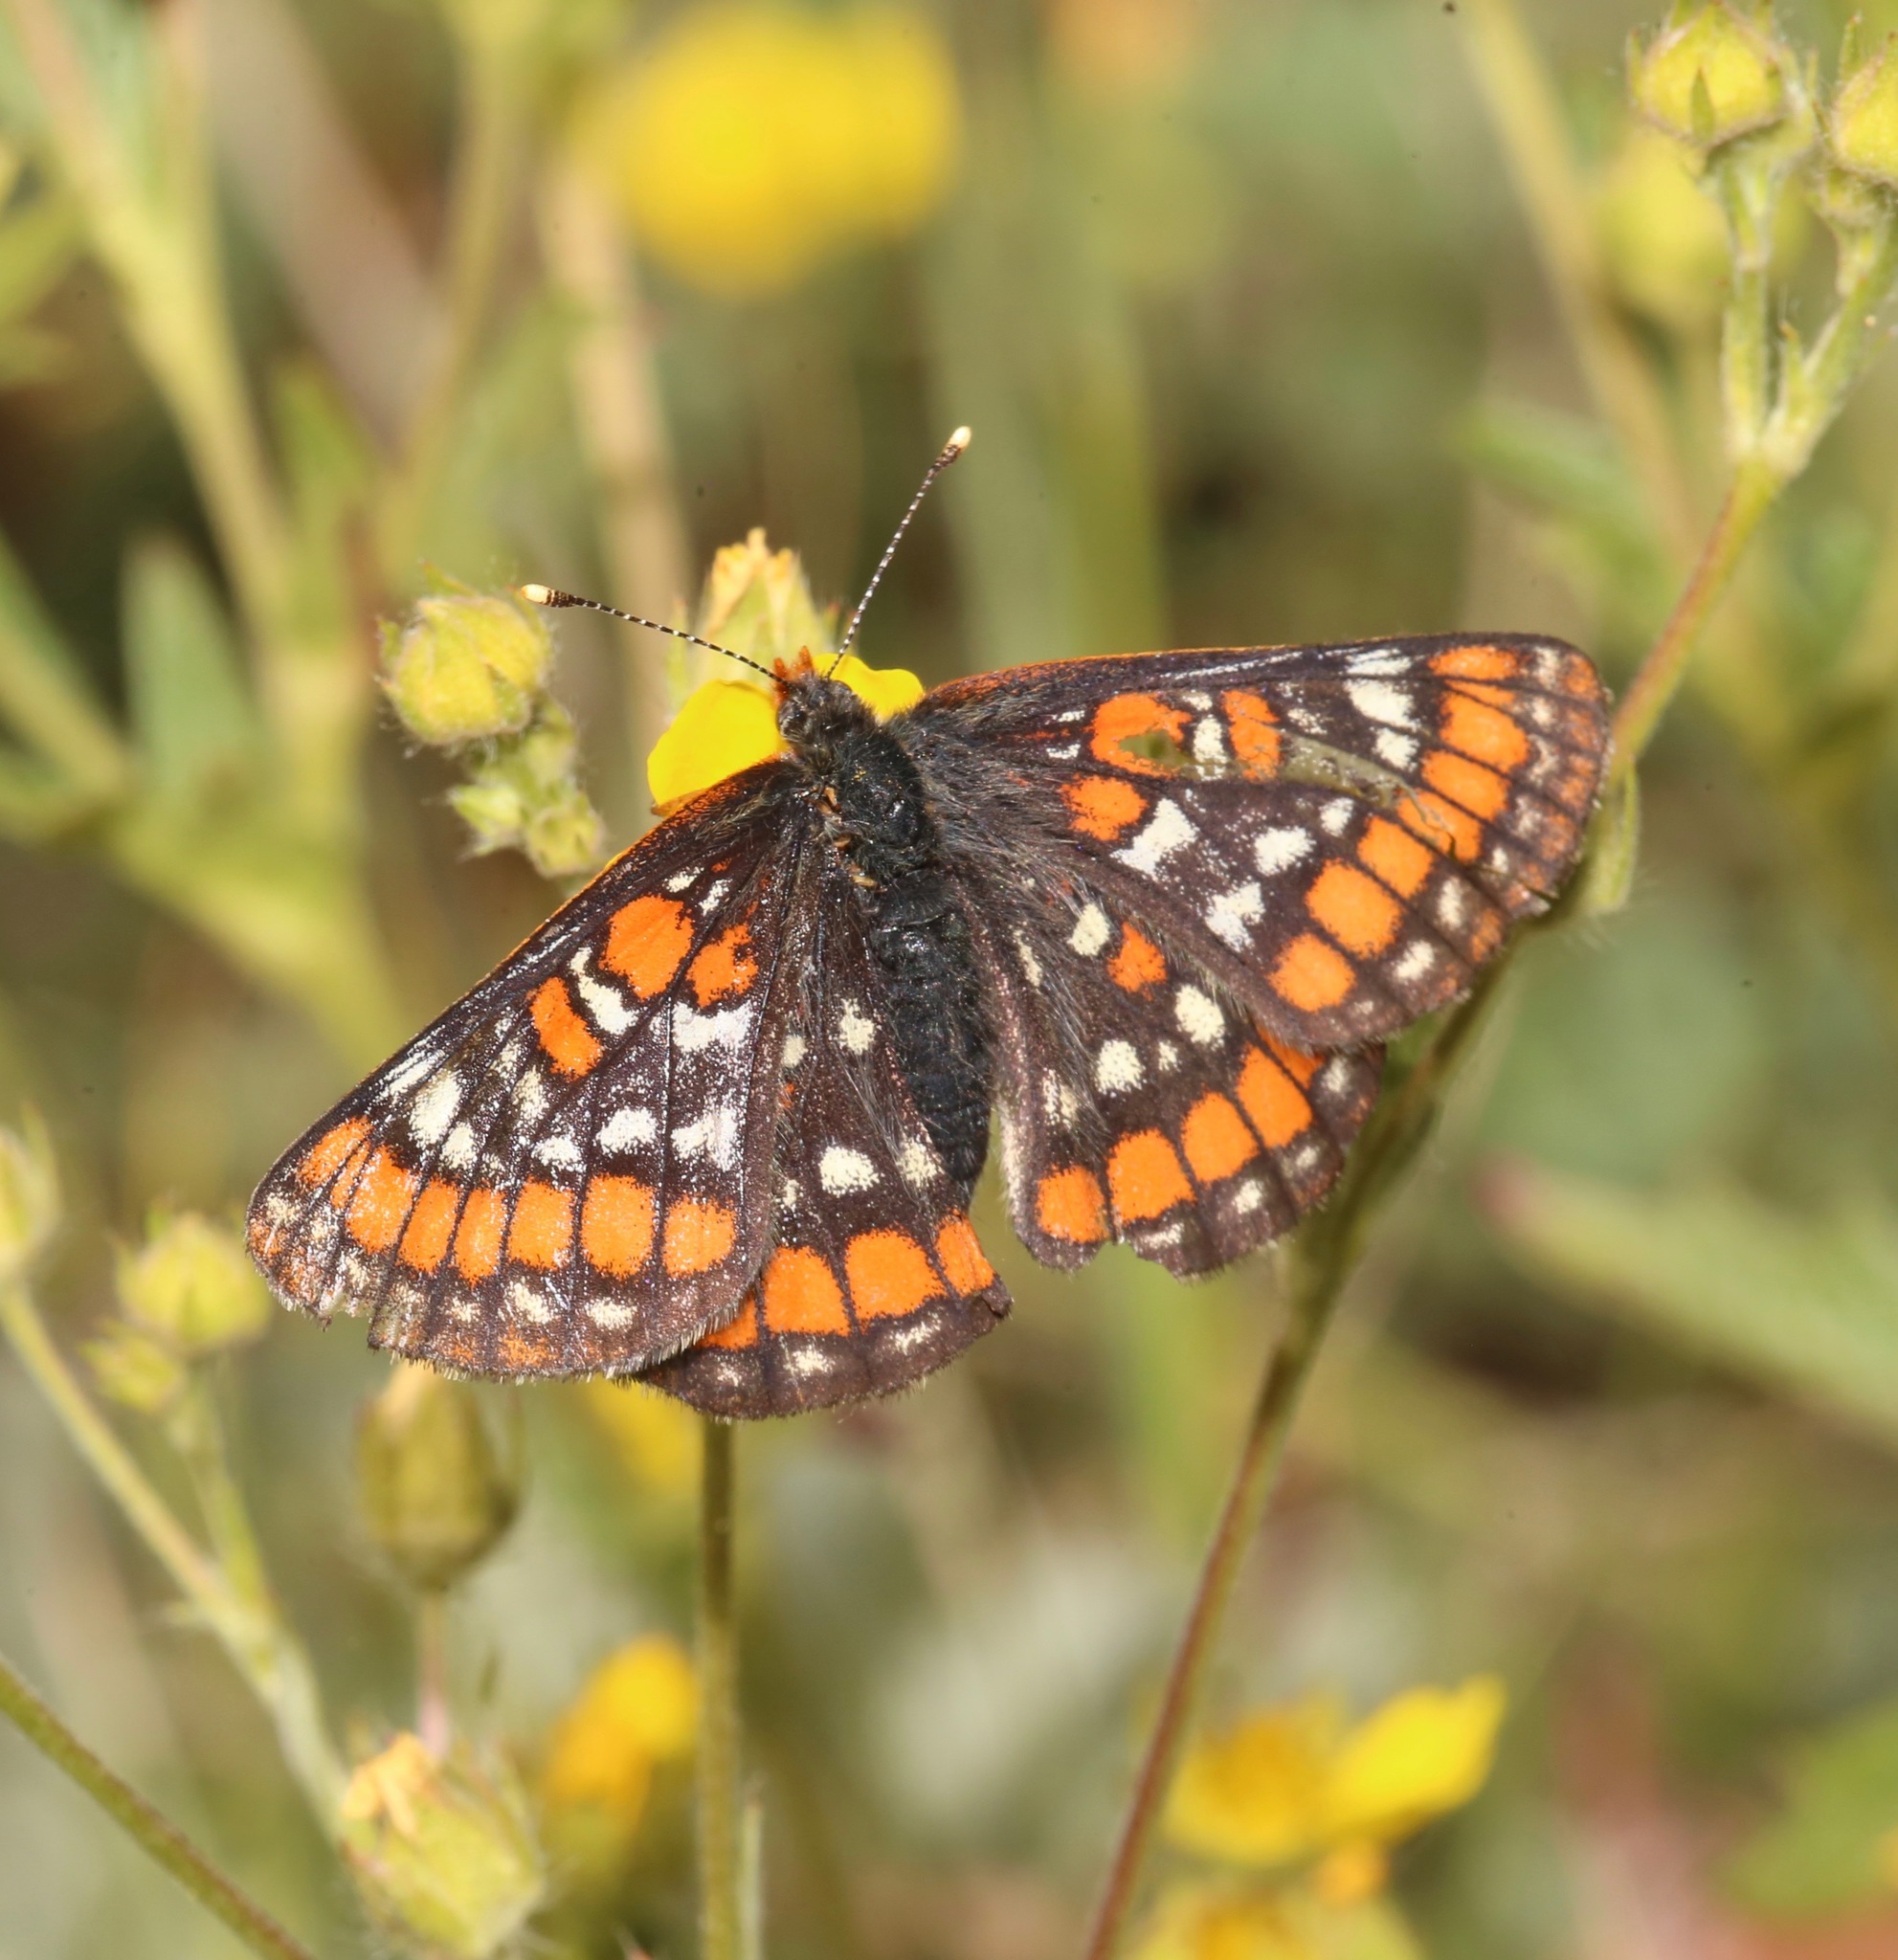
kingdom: Animalia
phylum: Arthropoda
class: Insecta
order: Lepidoptera
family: Nymphalidae
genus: Hypodryas
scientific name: Hypodryas gillettii
